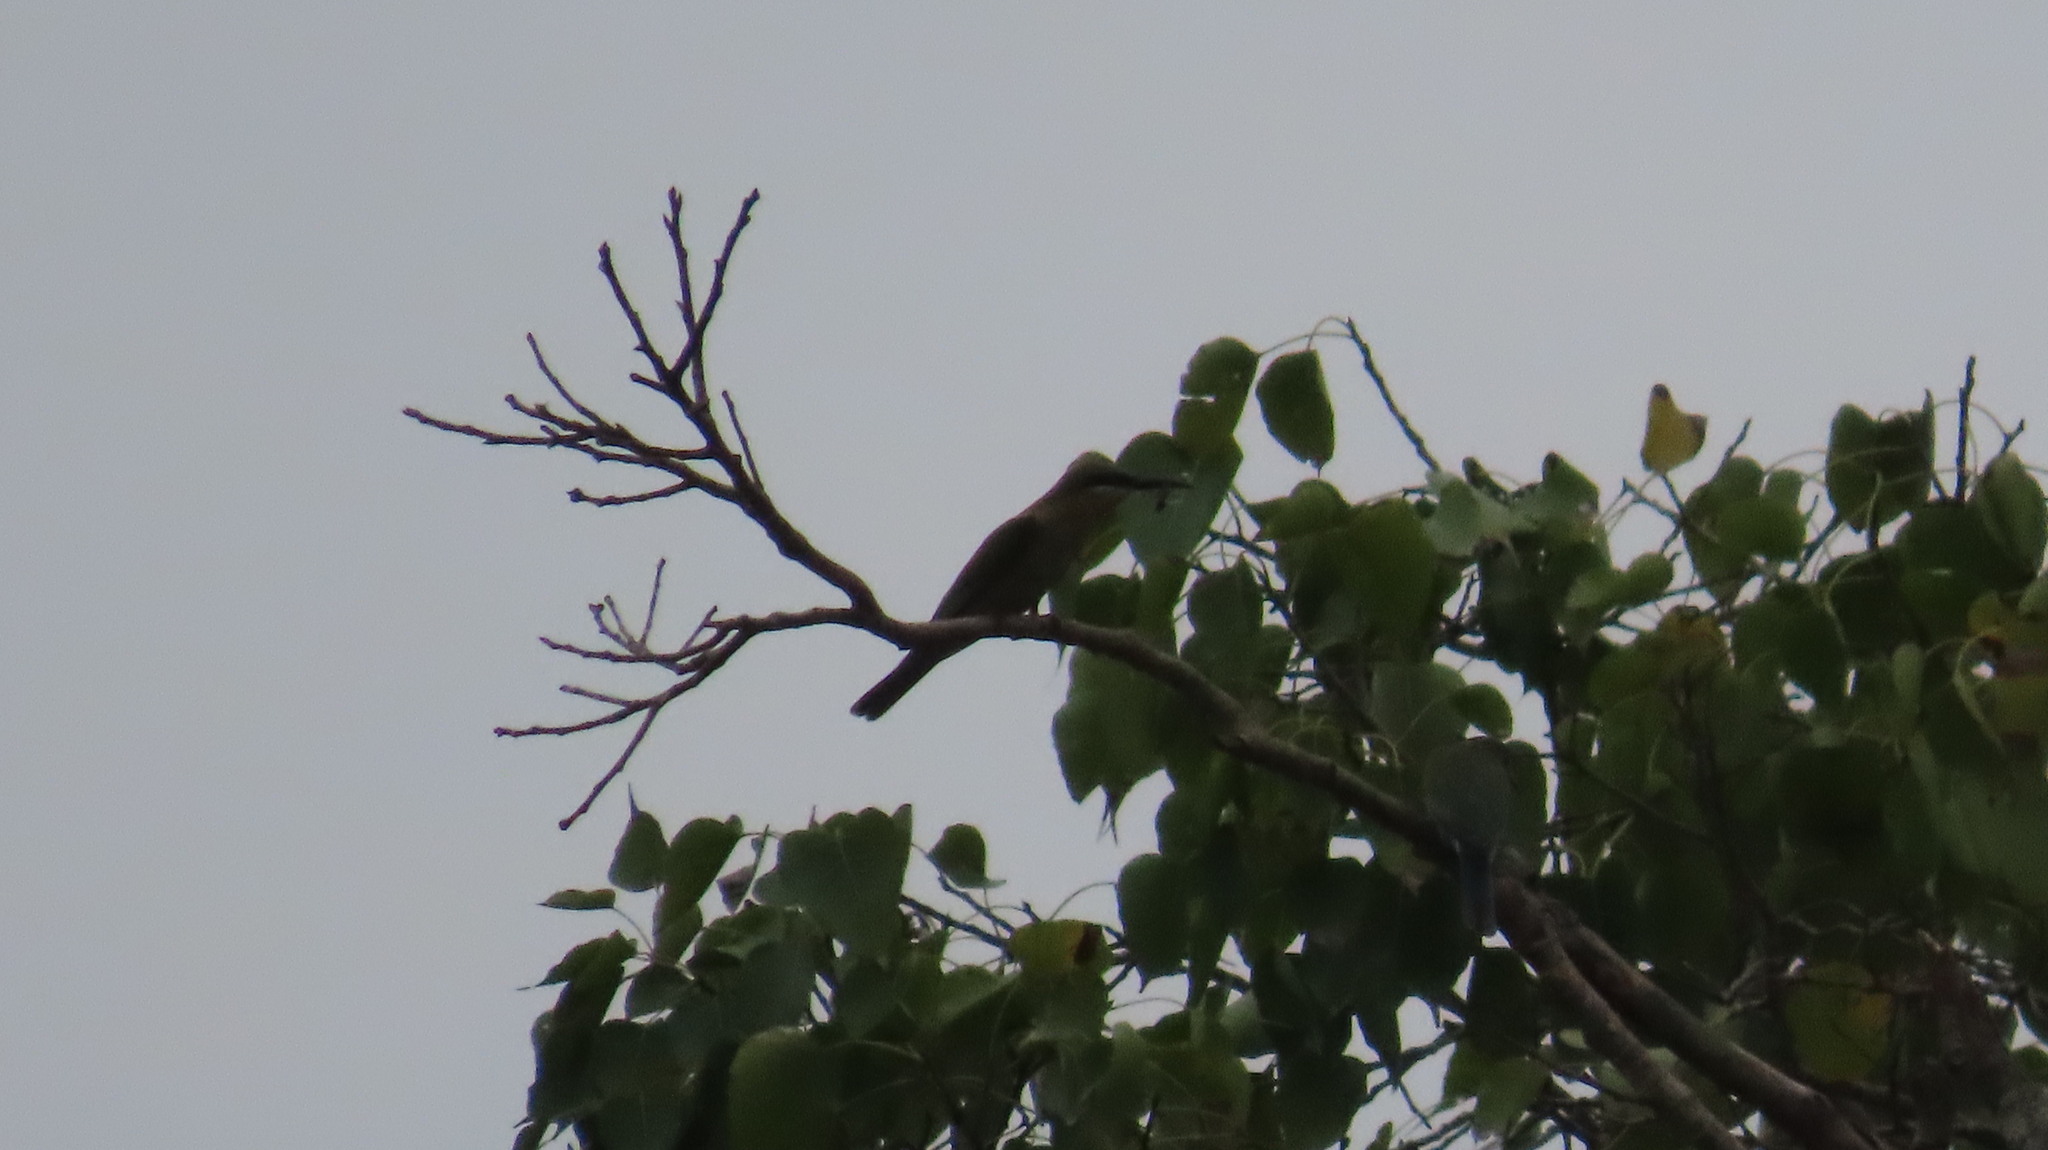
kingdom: Animalia
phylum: Chordata
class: Aves
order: Coraciiformes
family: Meropidae
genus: Merops
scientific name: Merops philippinus
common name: Blue-tailed bee-eater
